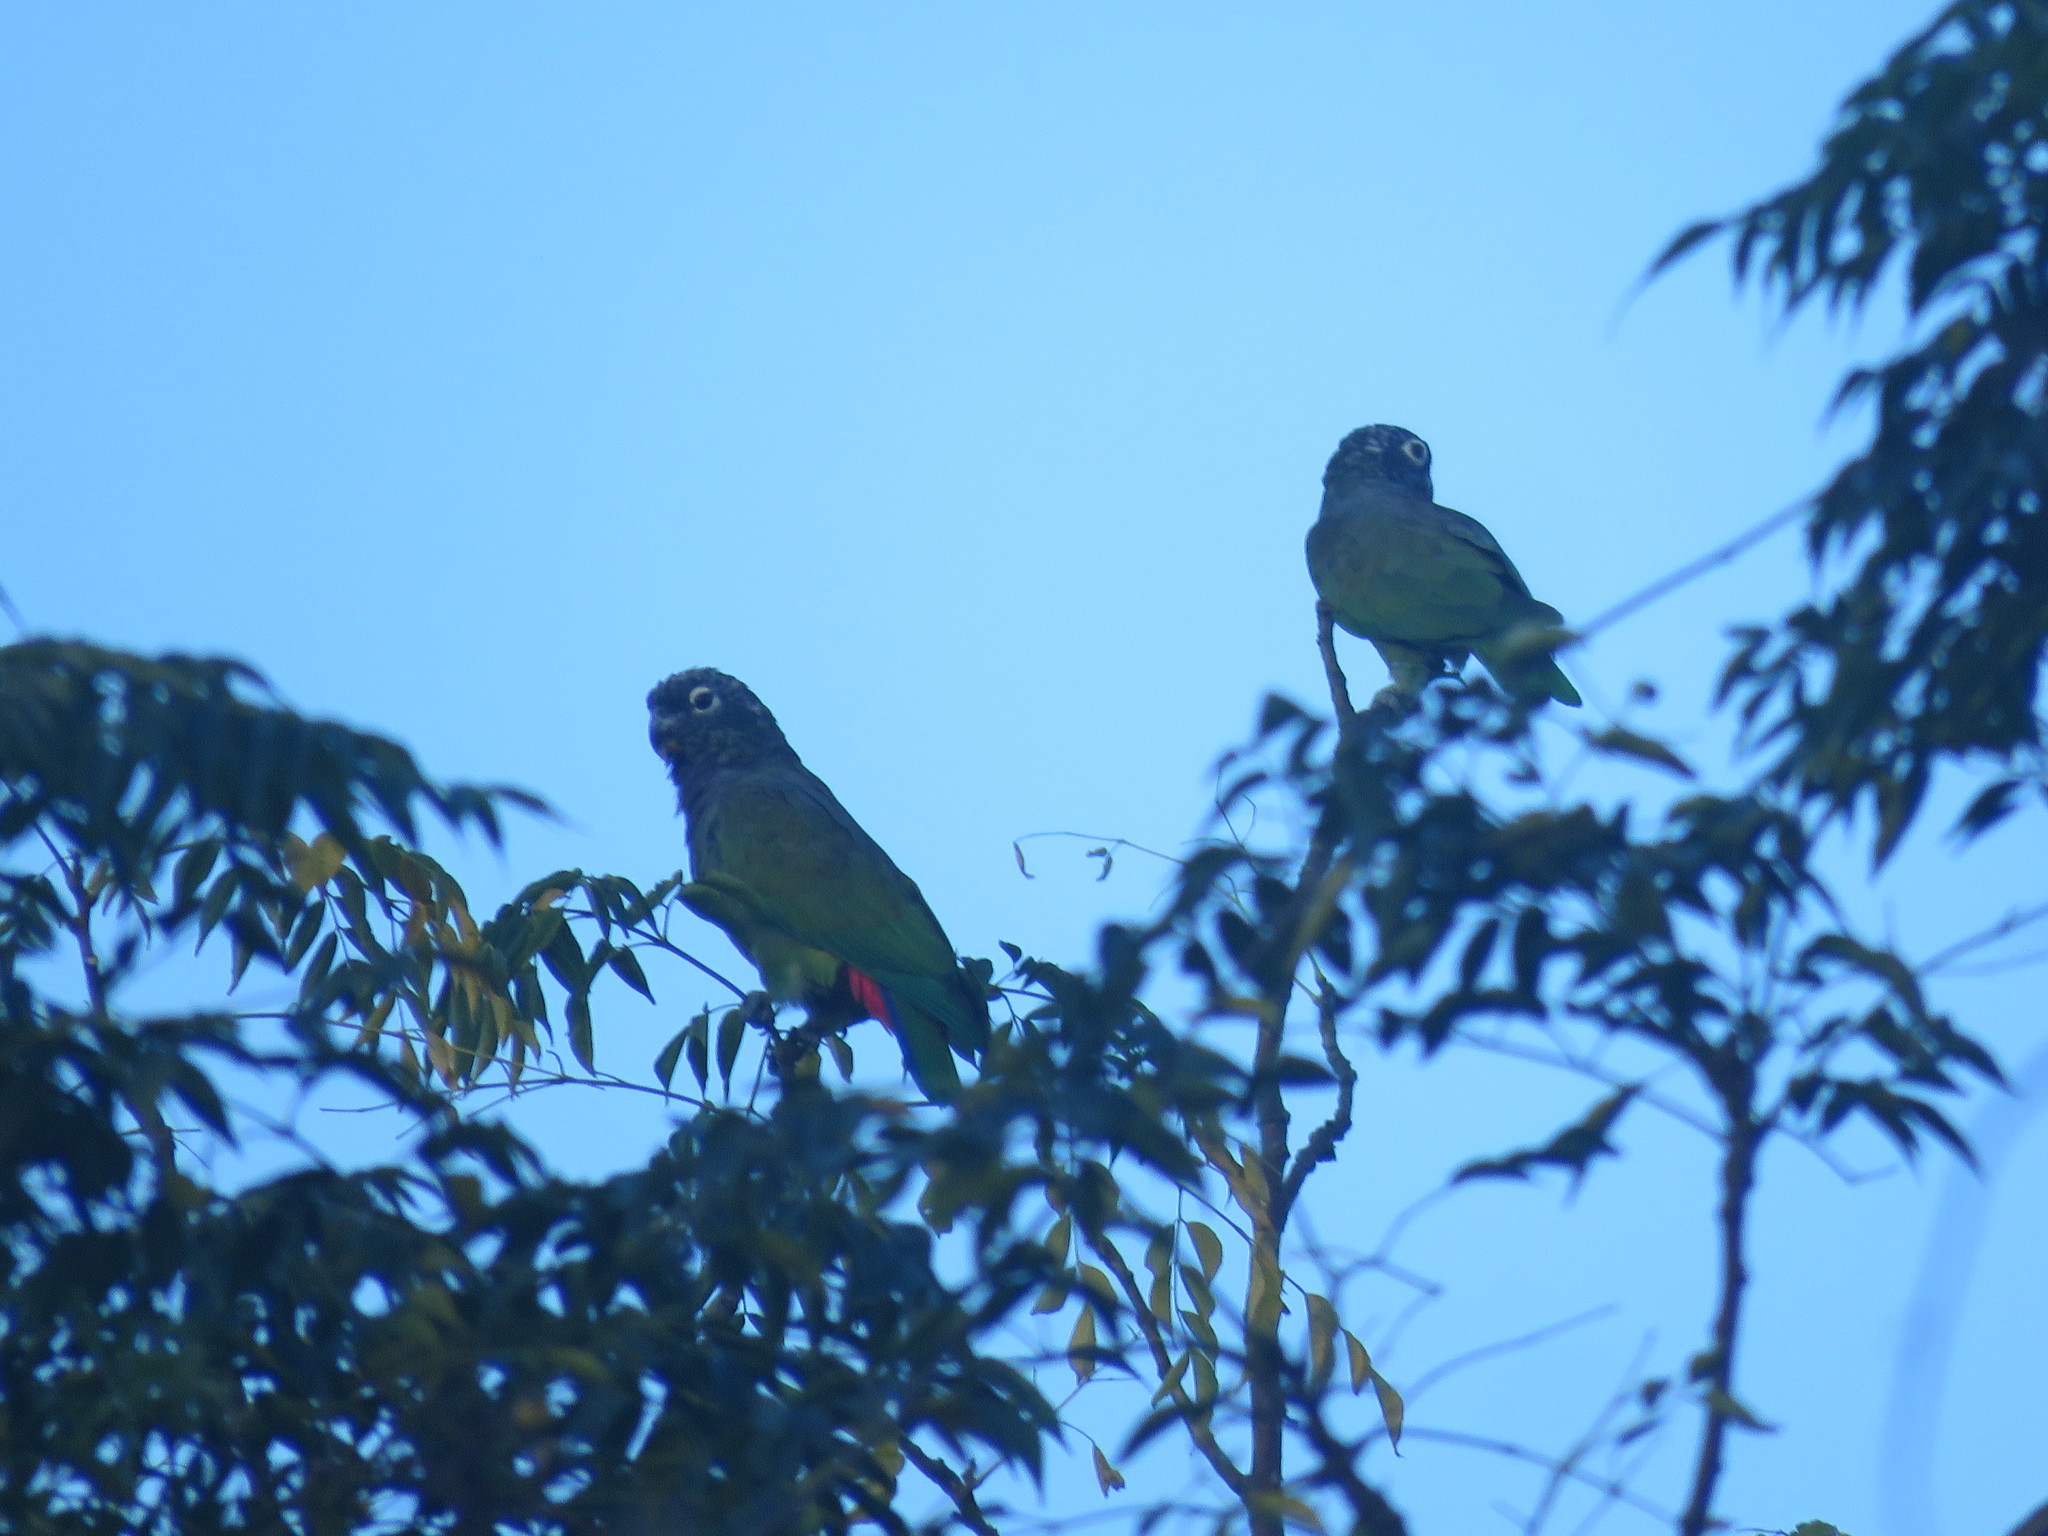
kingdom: Animalia
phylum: Chordata
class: Aves
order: Psittaciformes
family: Psittacidae
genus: Pionus
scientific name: Pionus maximiliani
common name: Scaly-headed parrot
